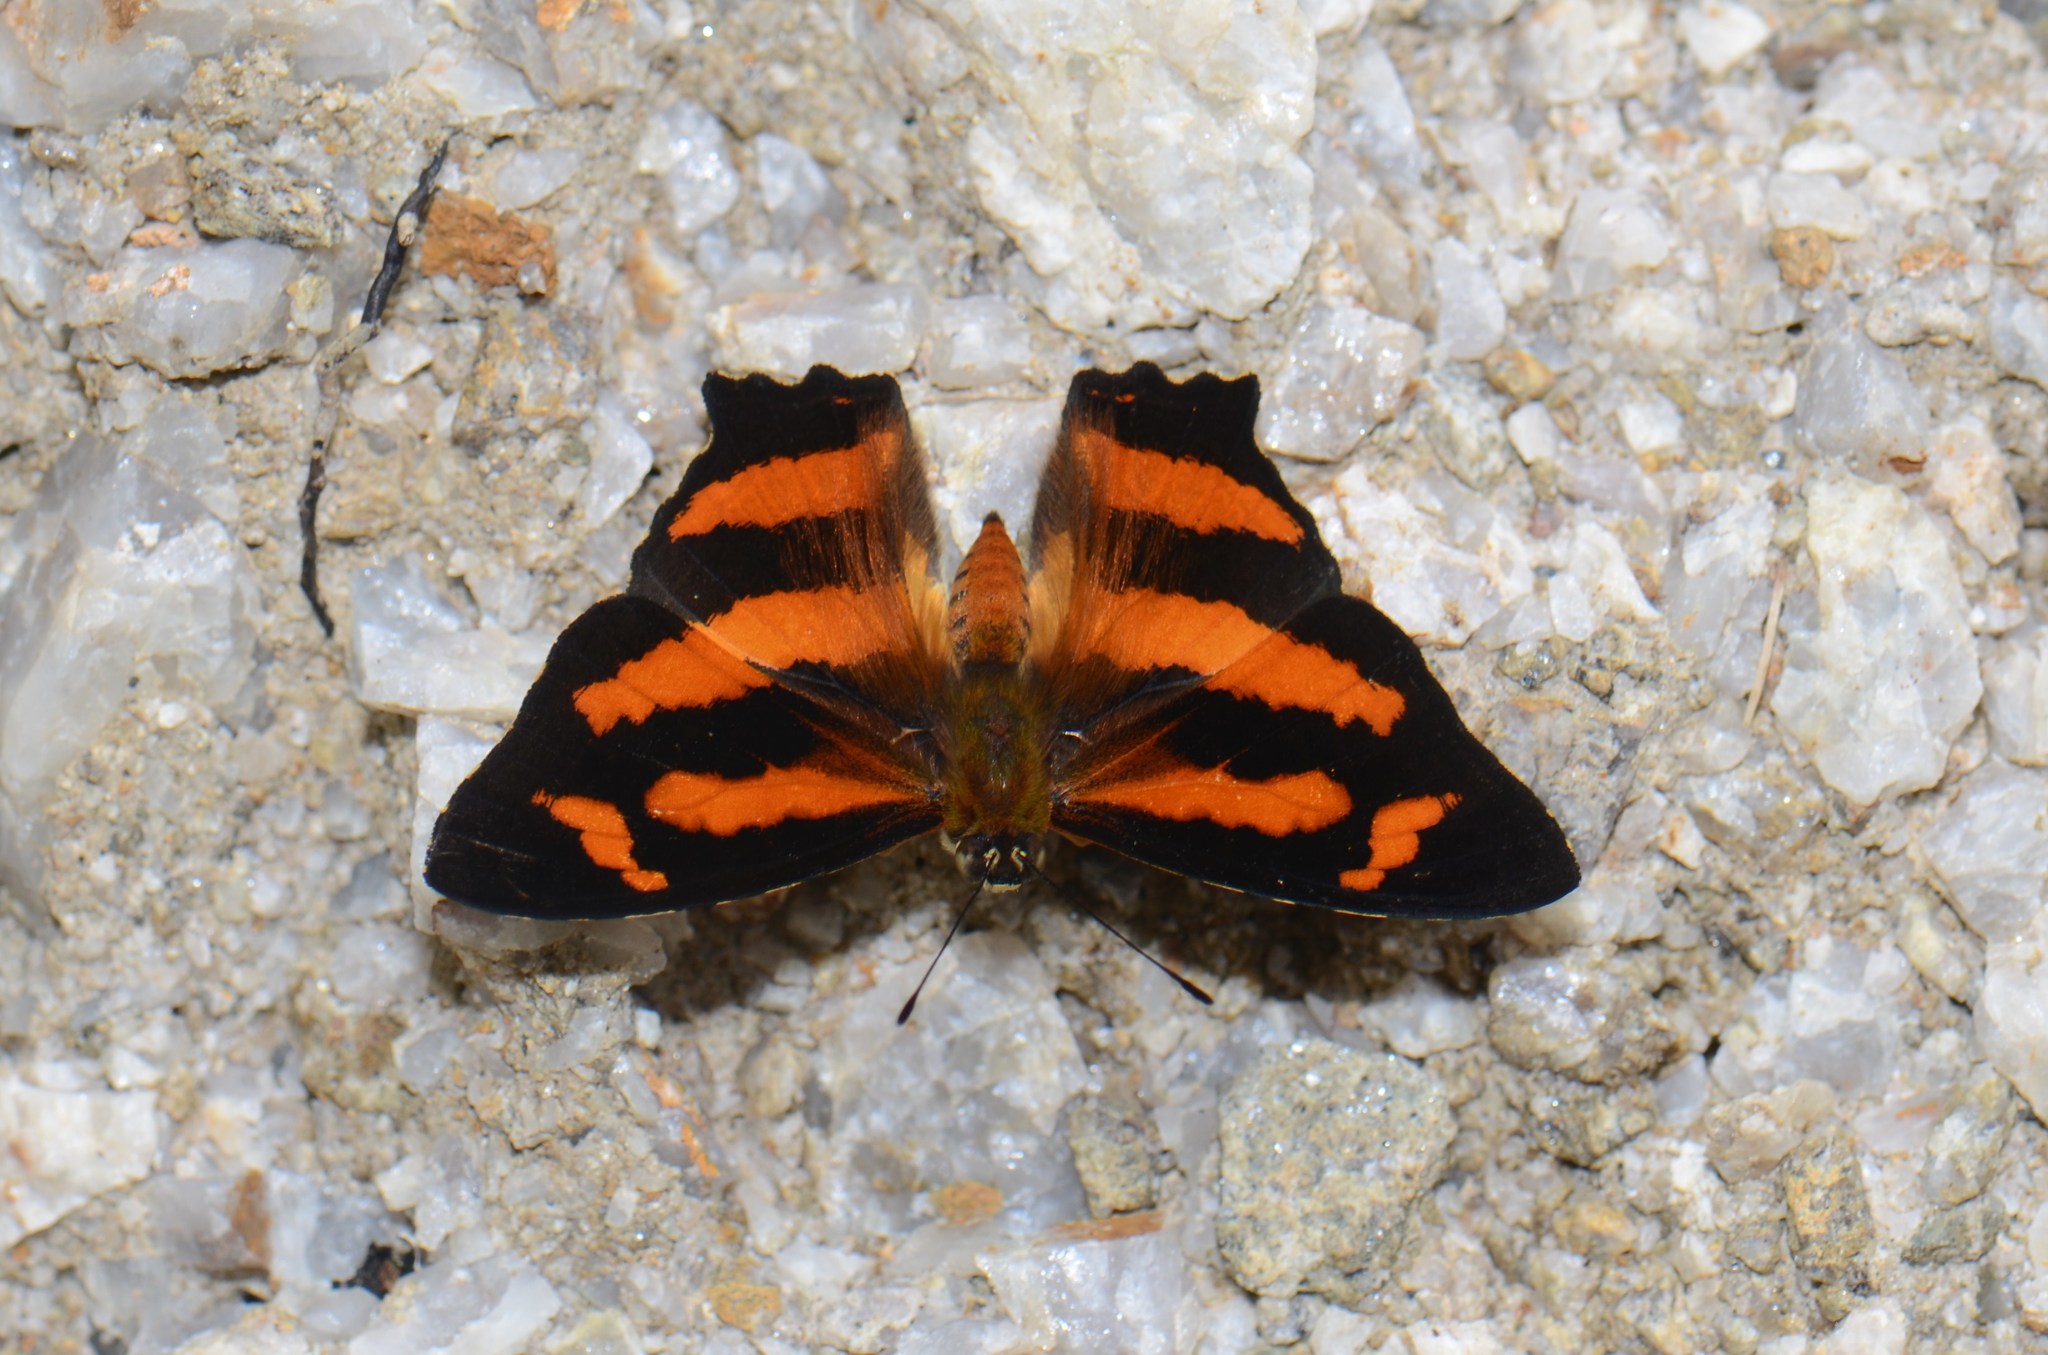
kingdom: Animalia
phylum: Arthropoda
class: Insecta
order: Lepidoptera
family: Nymphalidae
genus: Symbrenthia
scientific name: Symbrenthia hypselis
